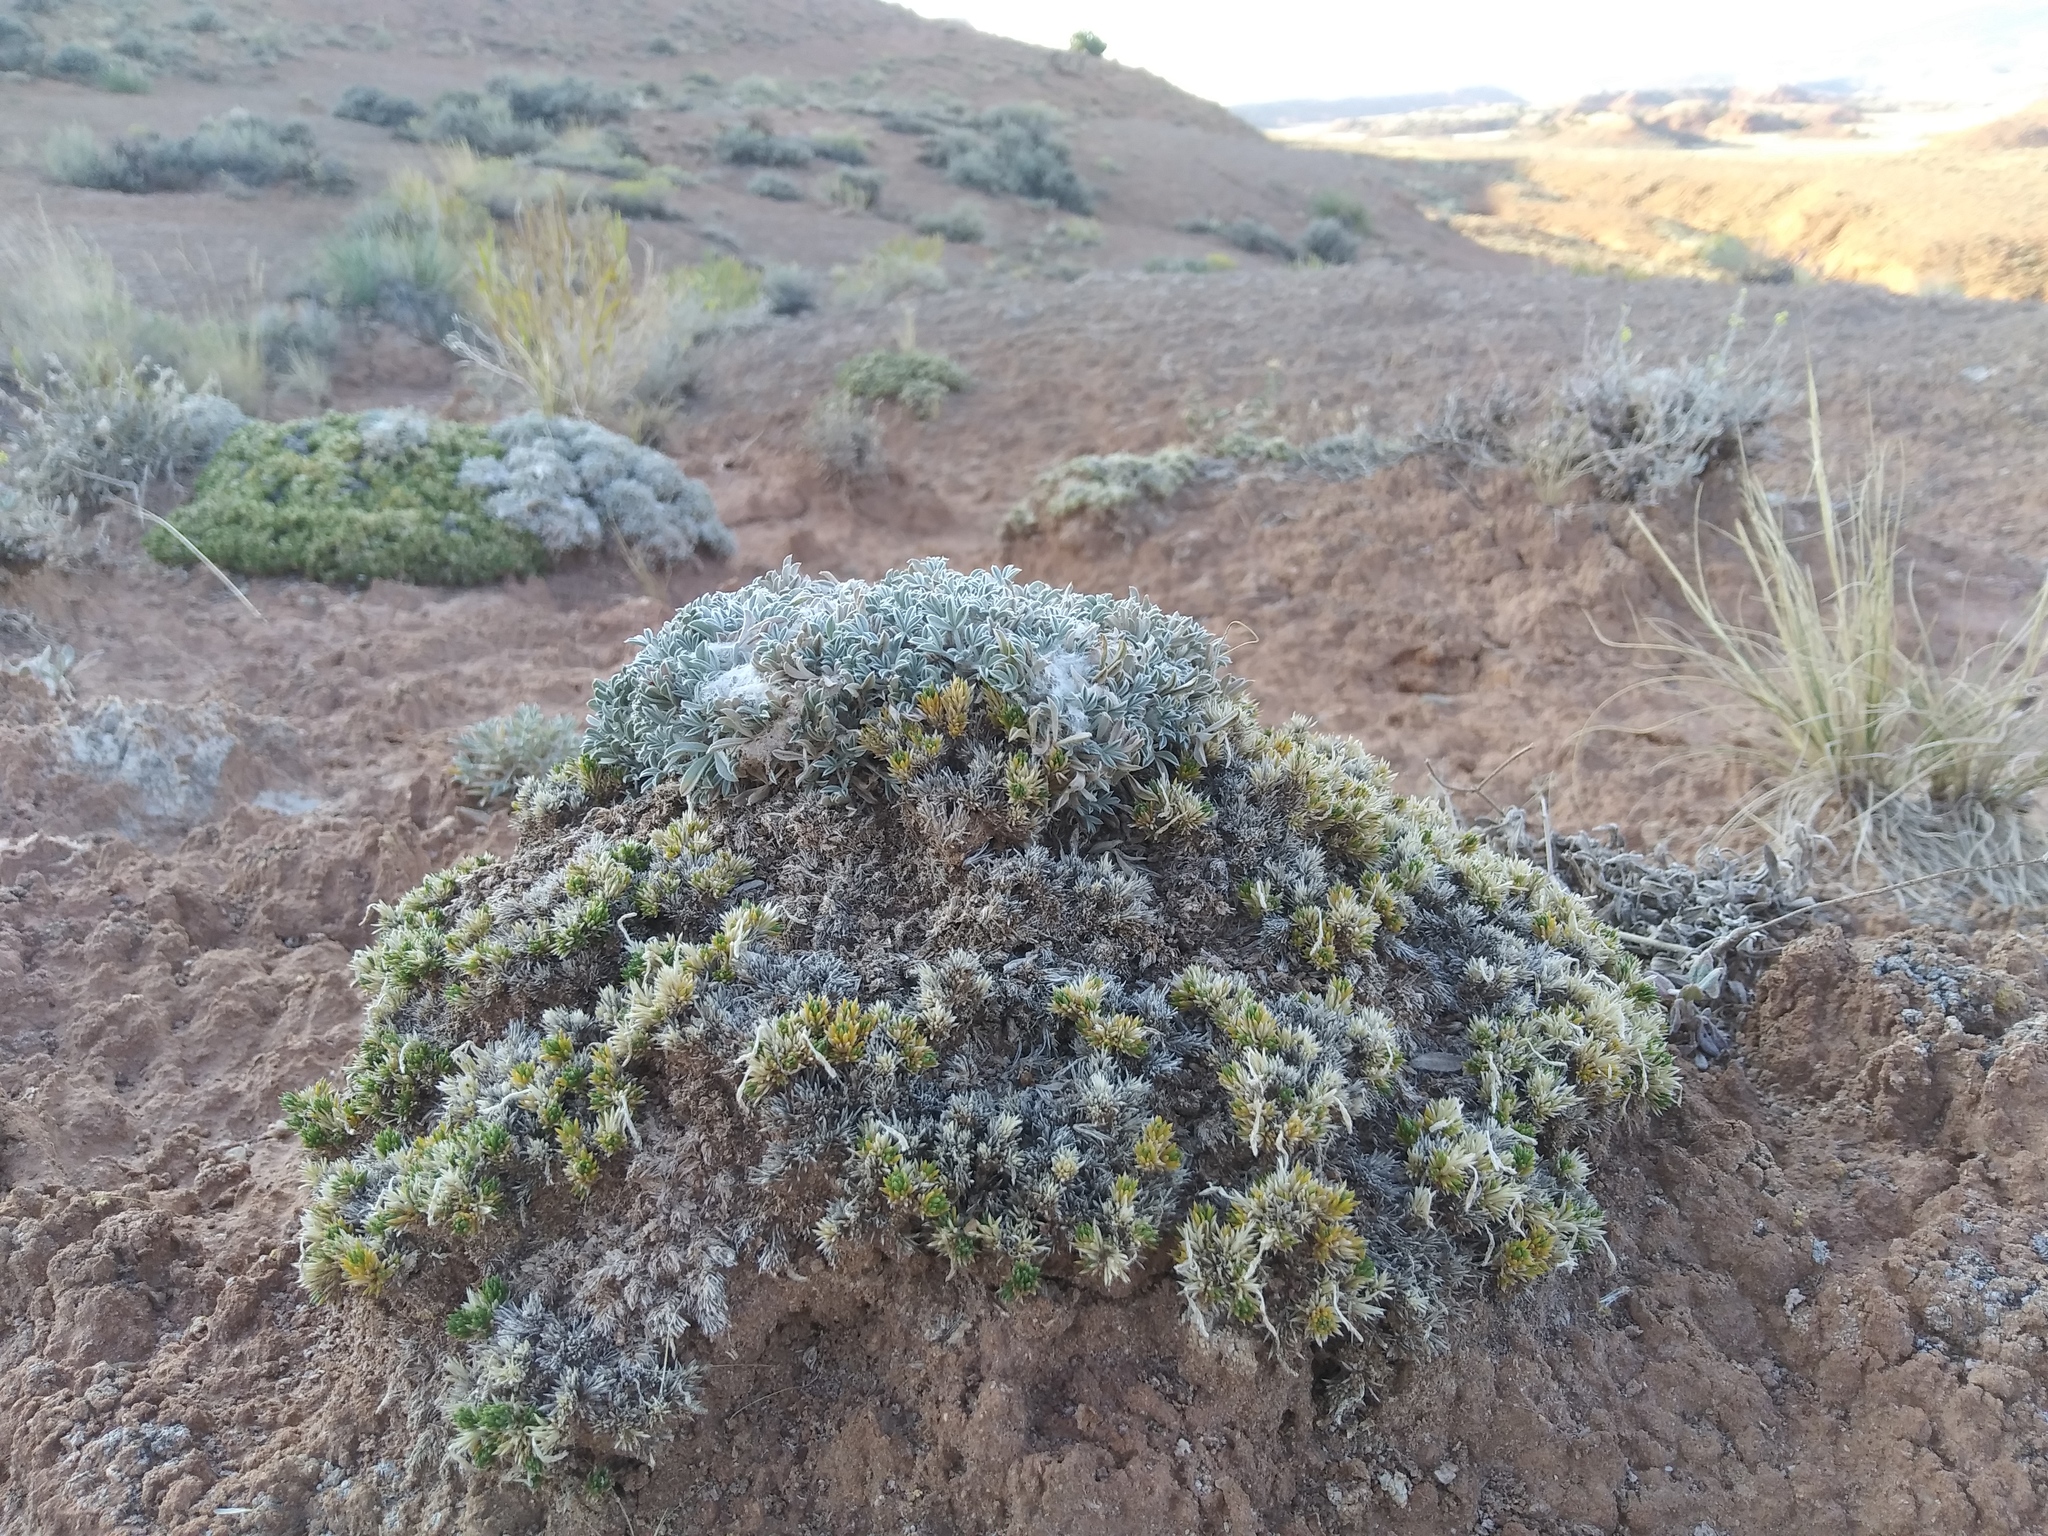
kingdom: Plantae
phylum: Tracheophyta
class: Magnoliopsida
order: Fabales
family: Fabaceae
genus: Astragalus
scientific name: Astragalus hyalinus
